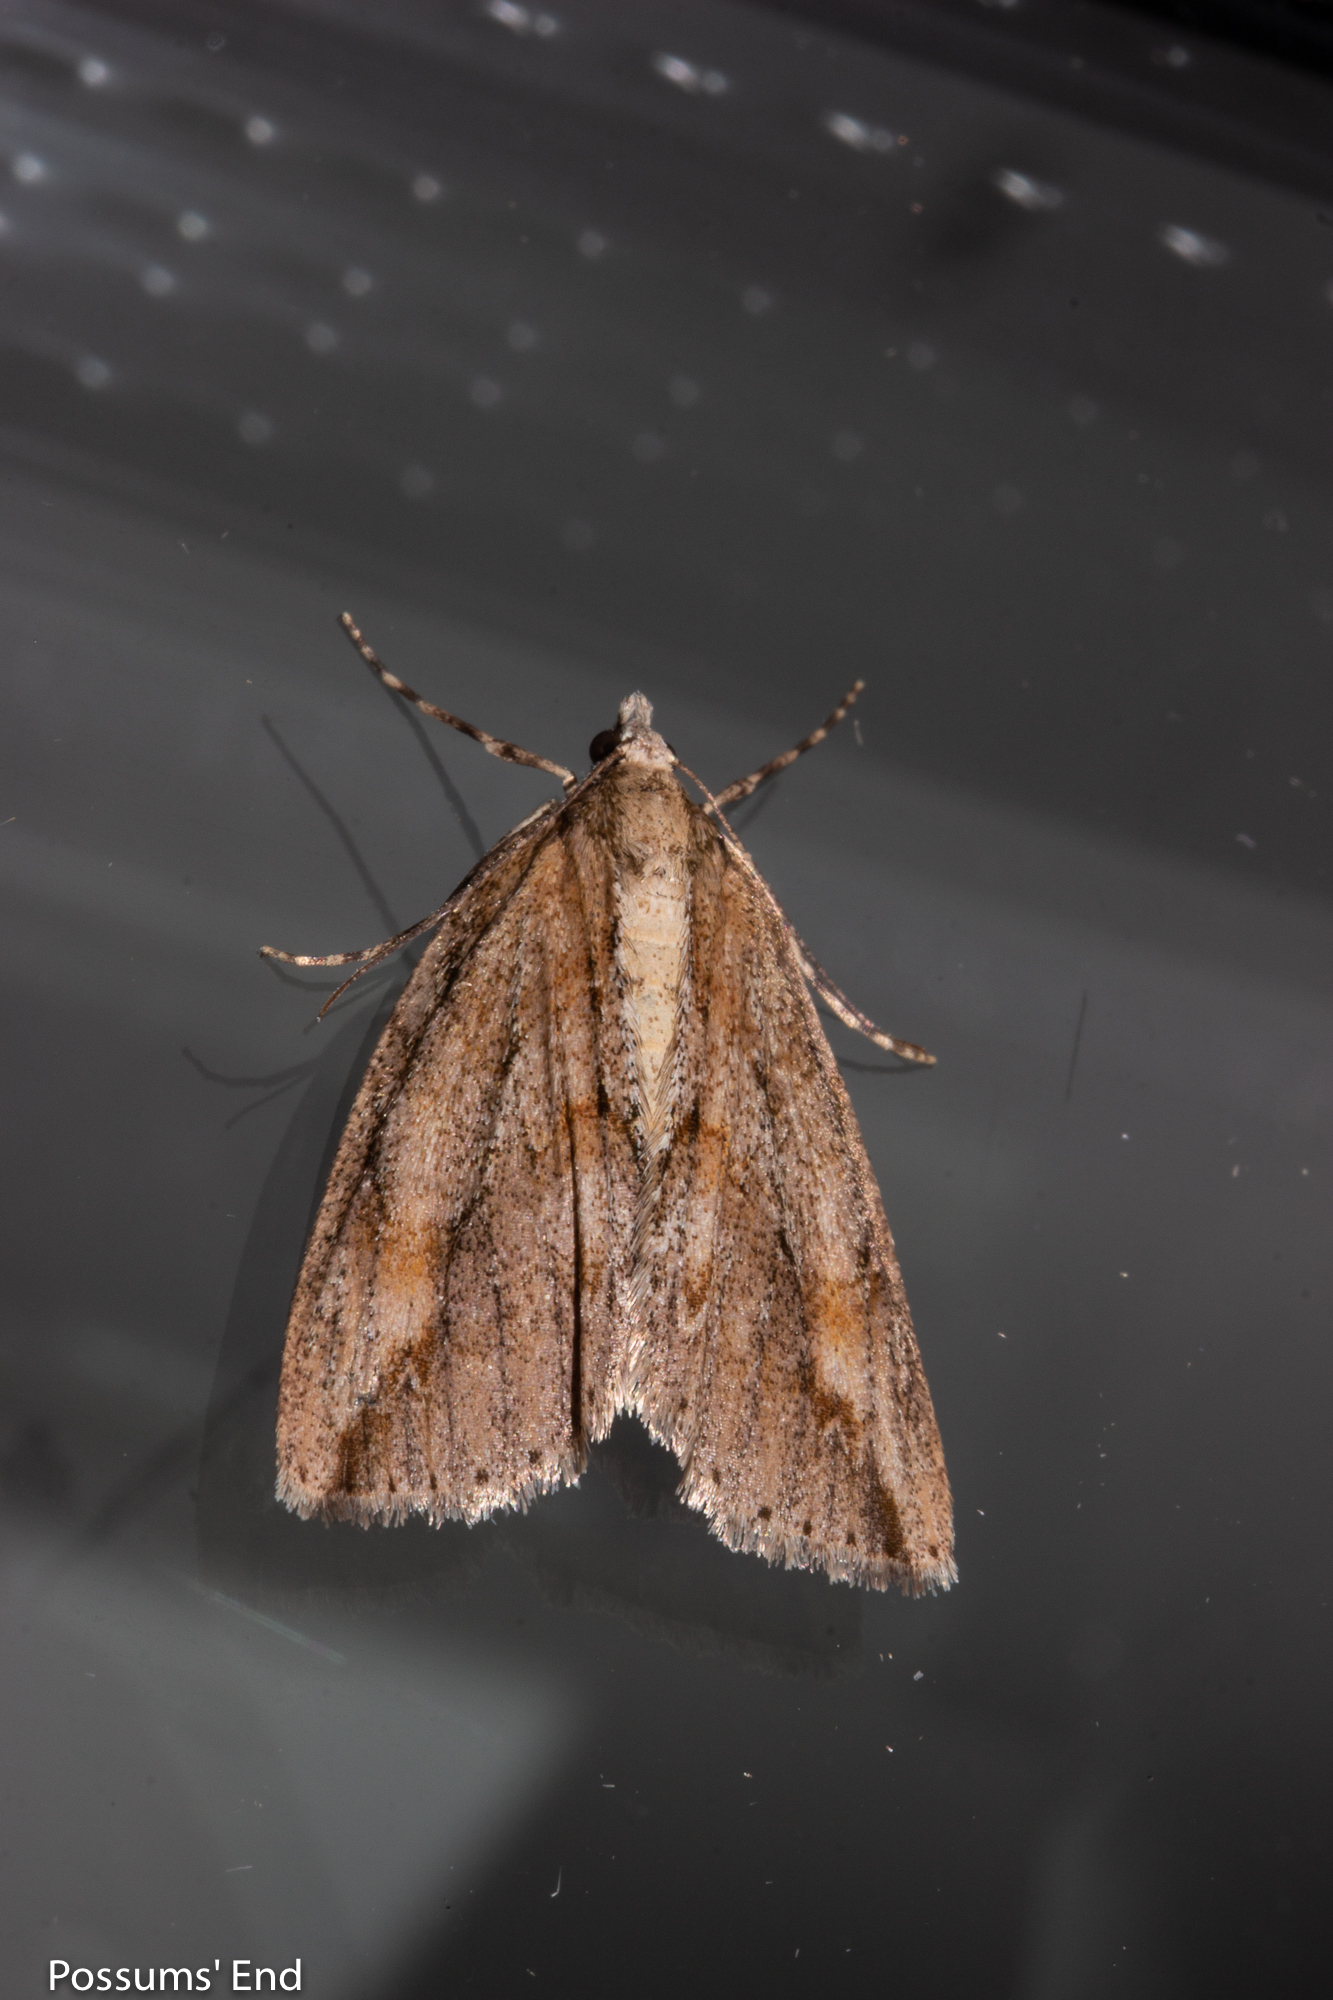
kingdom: Animalia
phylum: Arthropoda
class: Insecta
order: Lepidoptera
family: Geometridae
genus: Pseudocoremia
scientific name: Pseudocoremia lupinata
